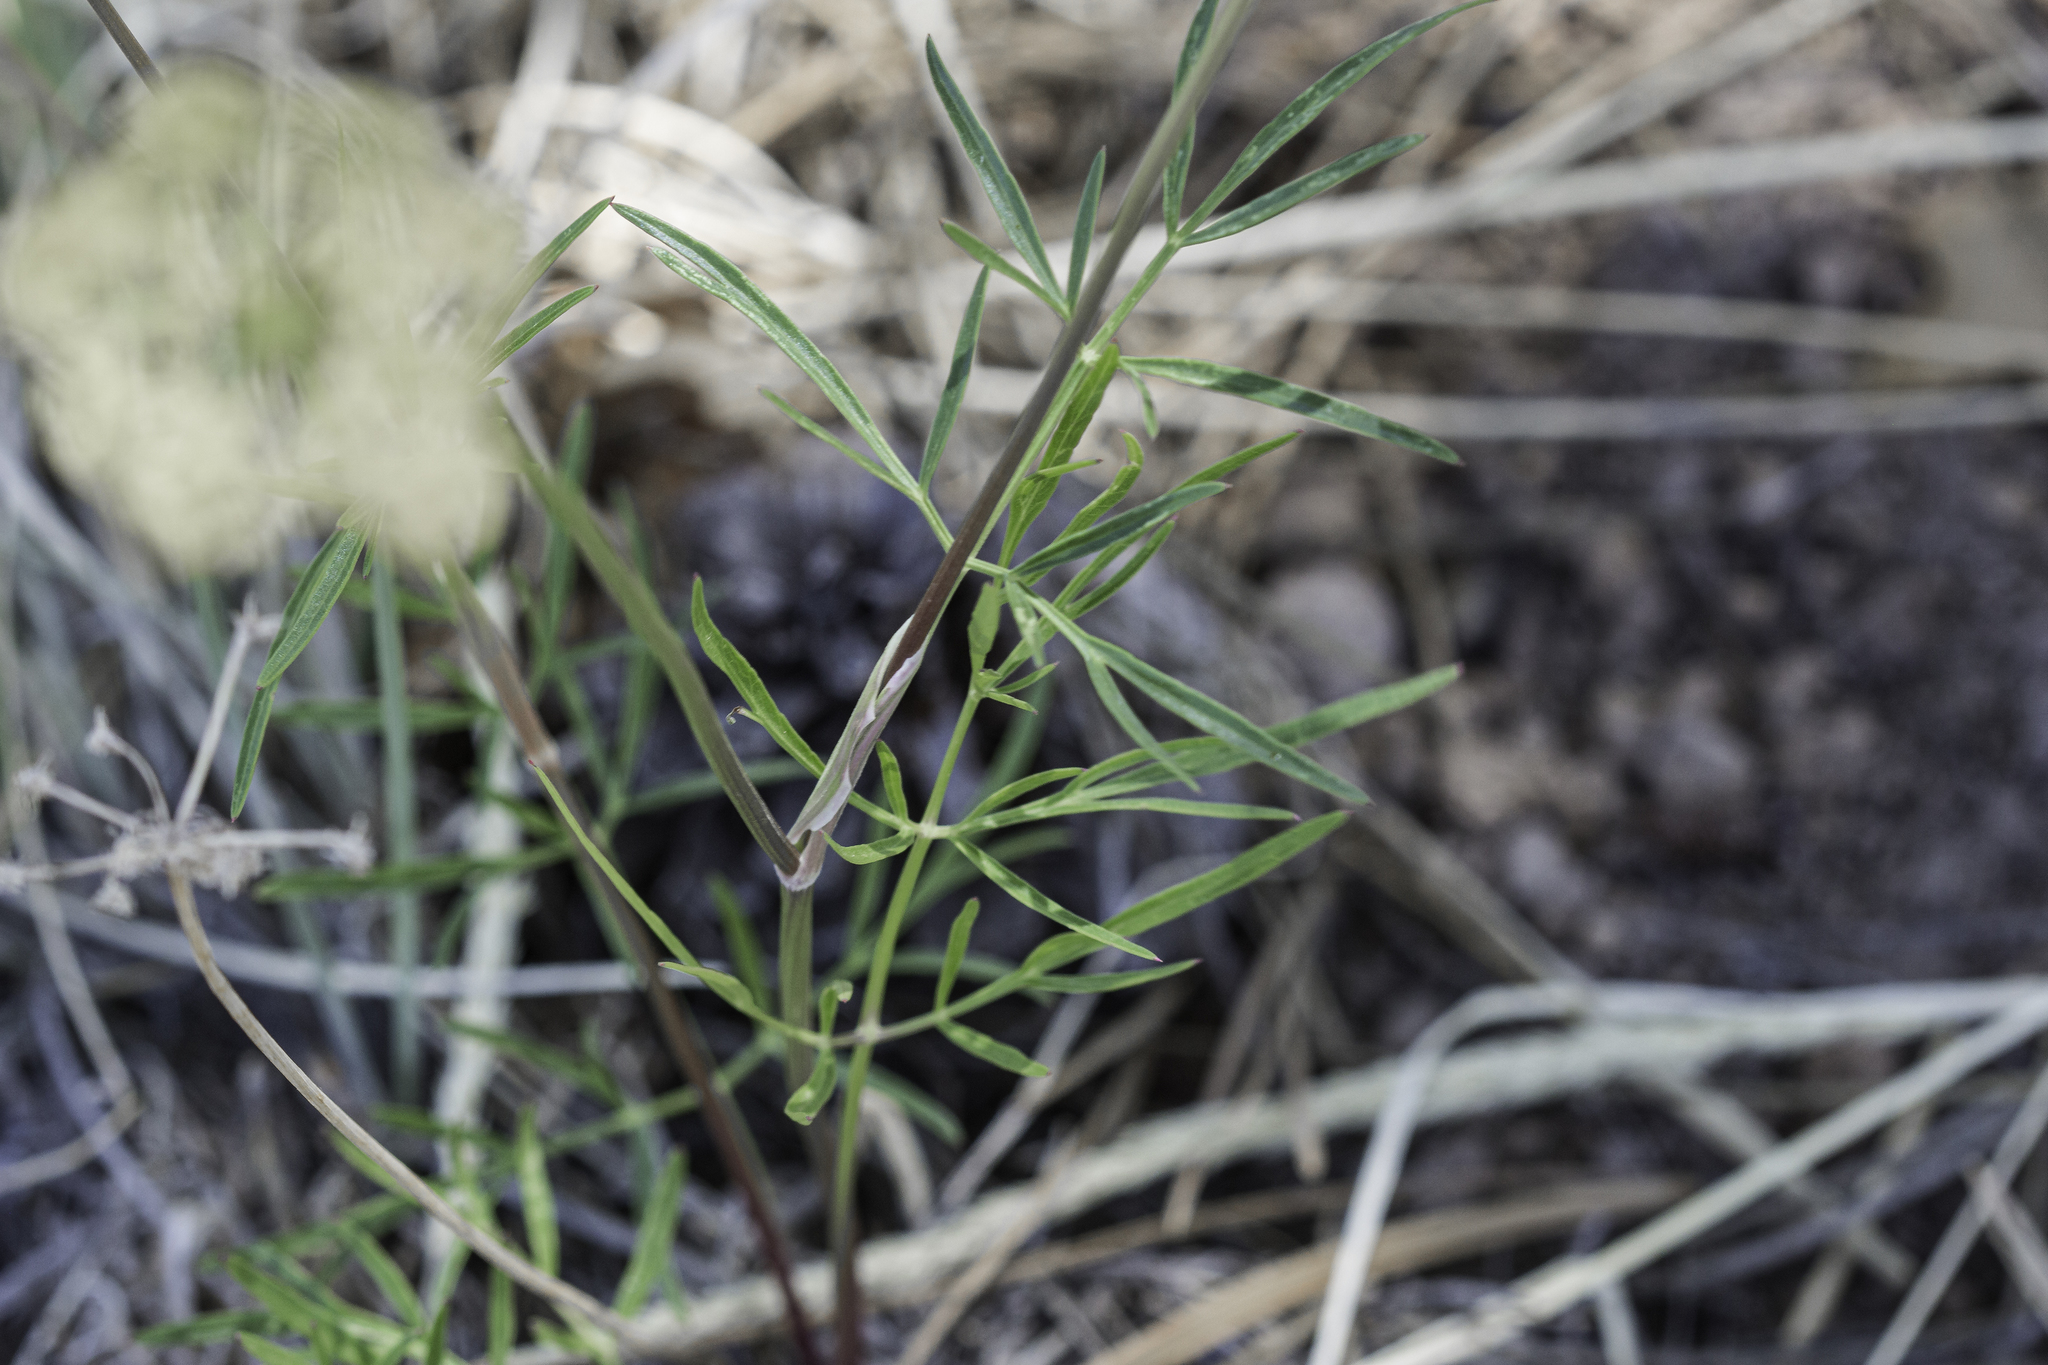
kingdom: Plantae
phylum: Tracheophyta
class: Magnoliopsida
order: Apiales
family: Apiaceae
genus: Cymopterus
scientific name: Cymopterus lemmonii
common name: Lemmon's spring-parsley
